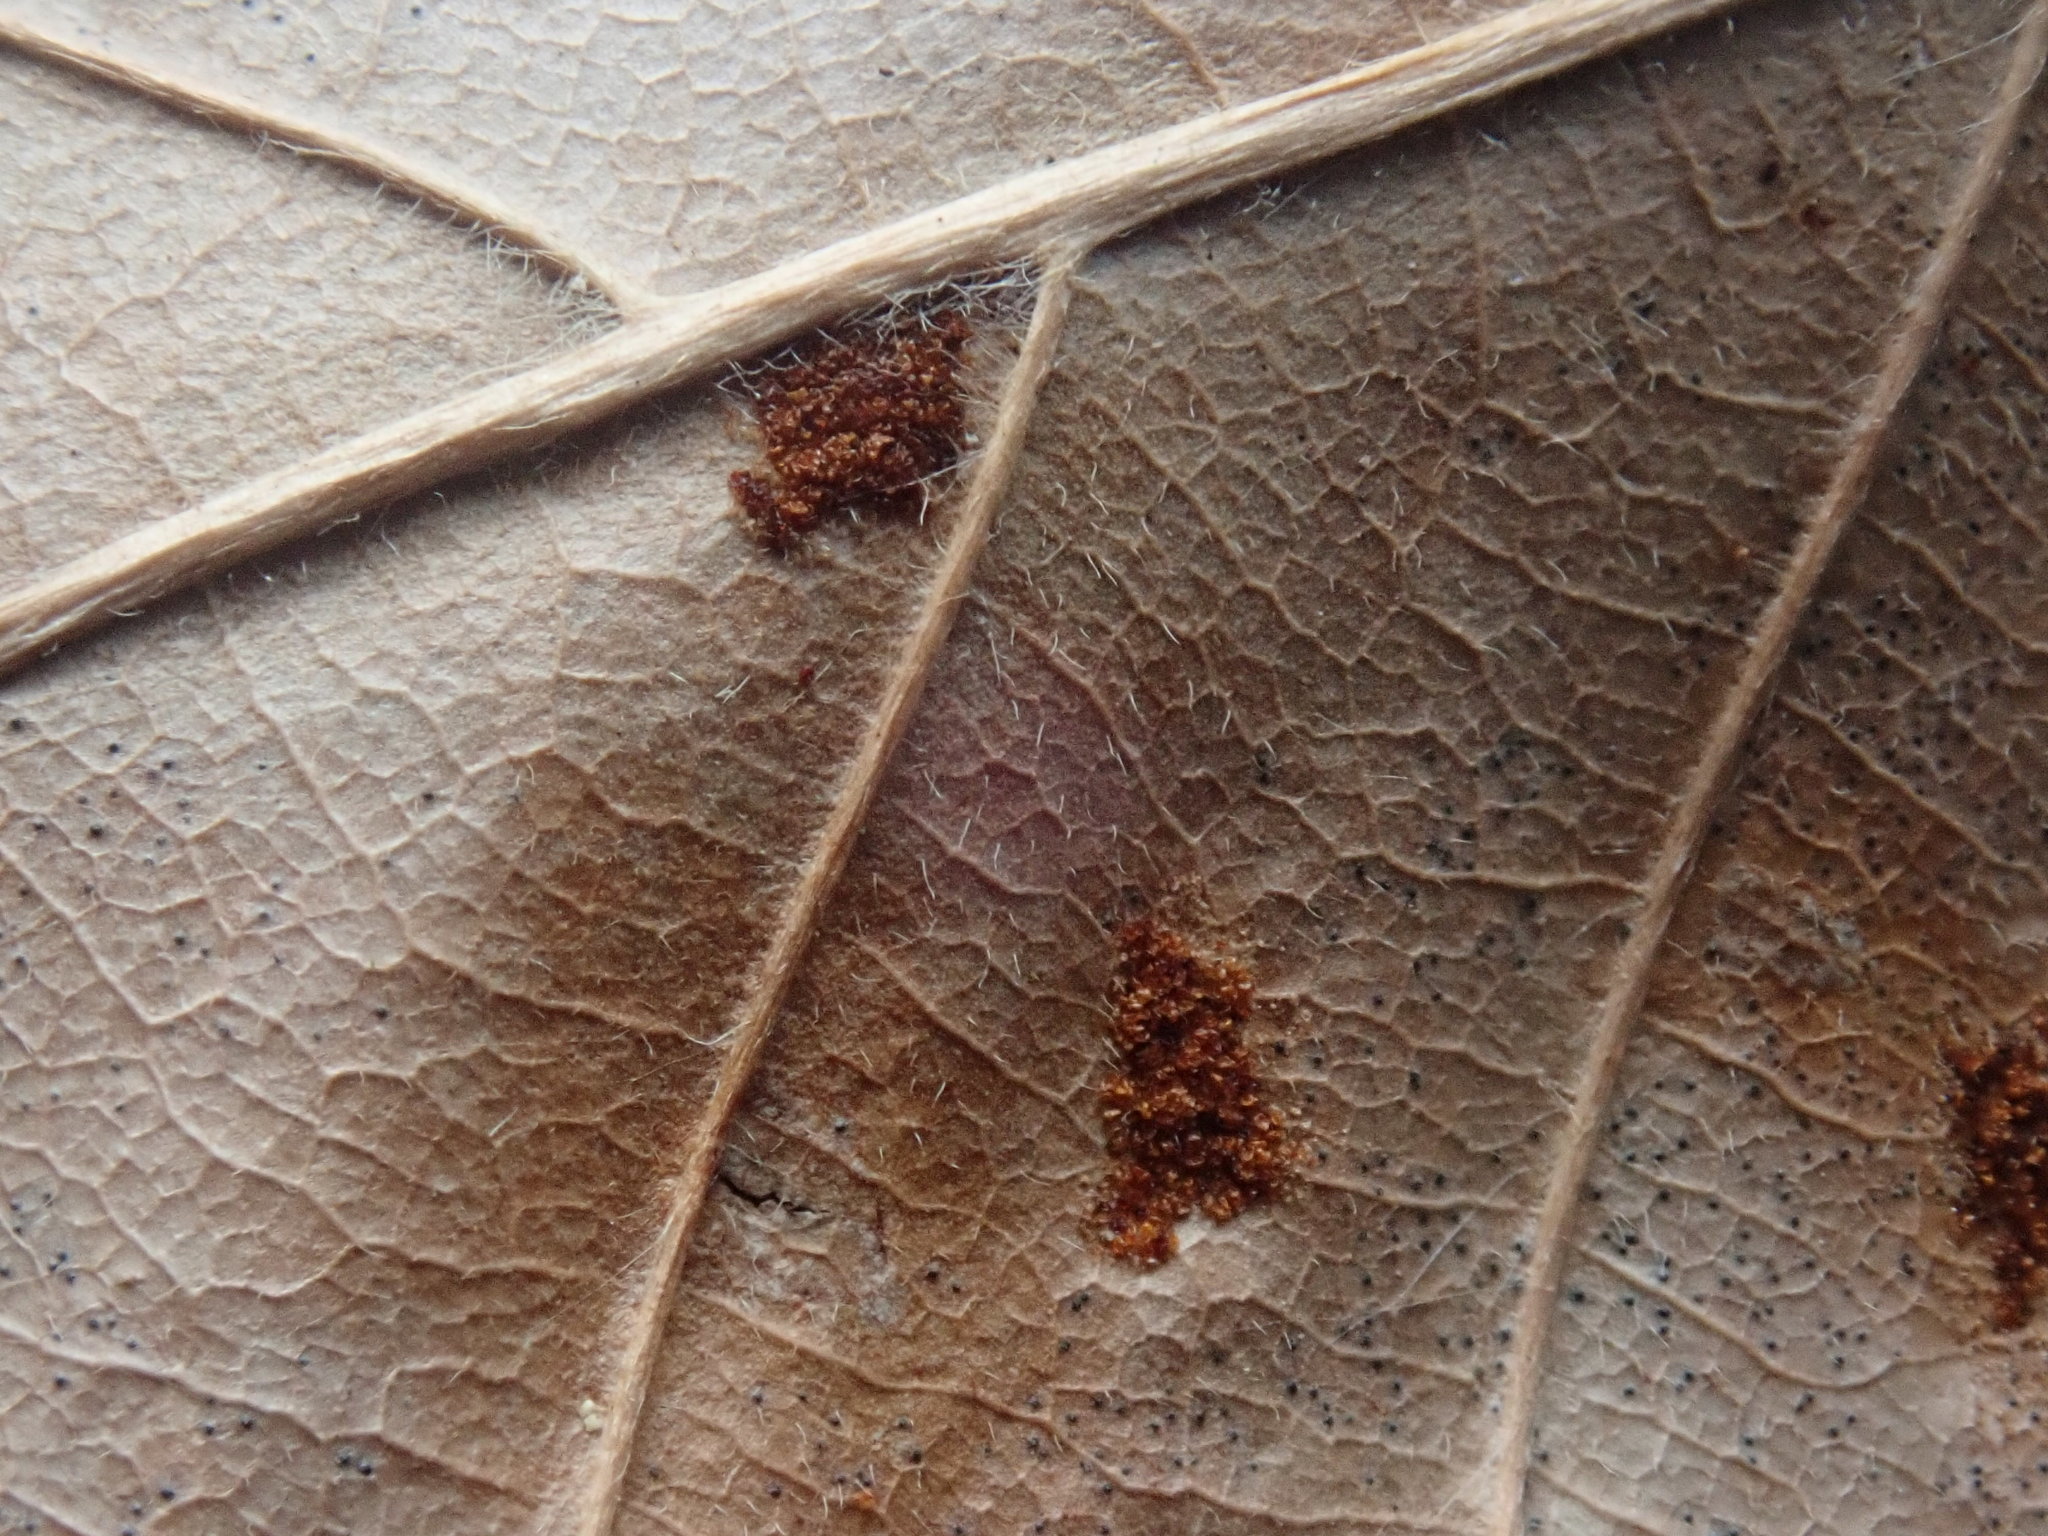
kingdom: Animalia
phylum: Arthropoda
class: Arachnida
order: Trombidiformes
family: Eriophyidae
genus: Acalitus
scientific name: Acalitus
